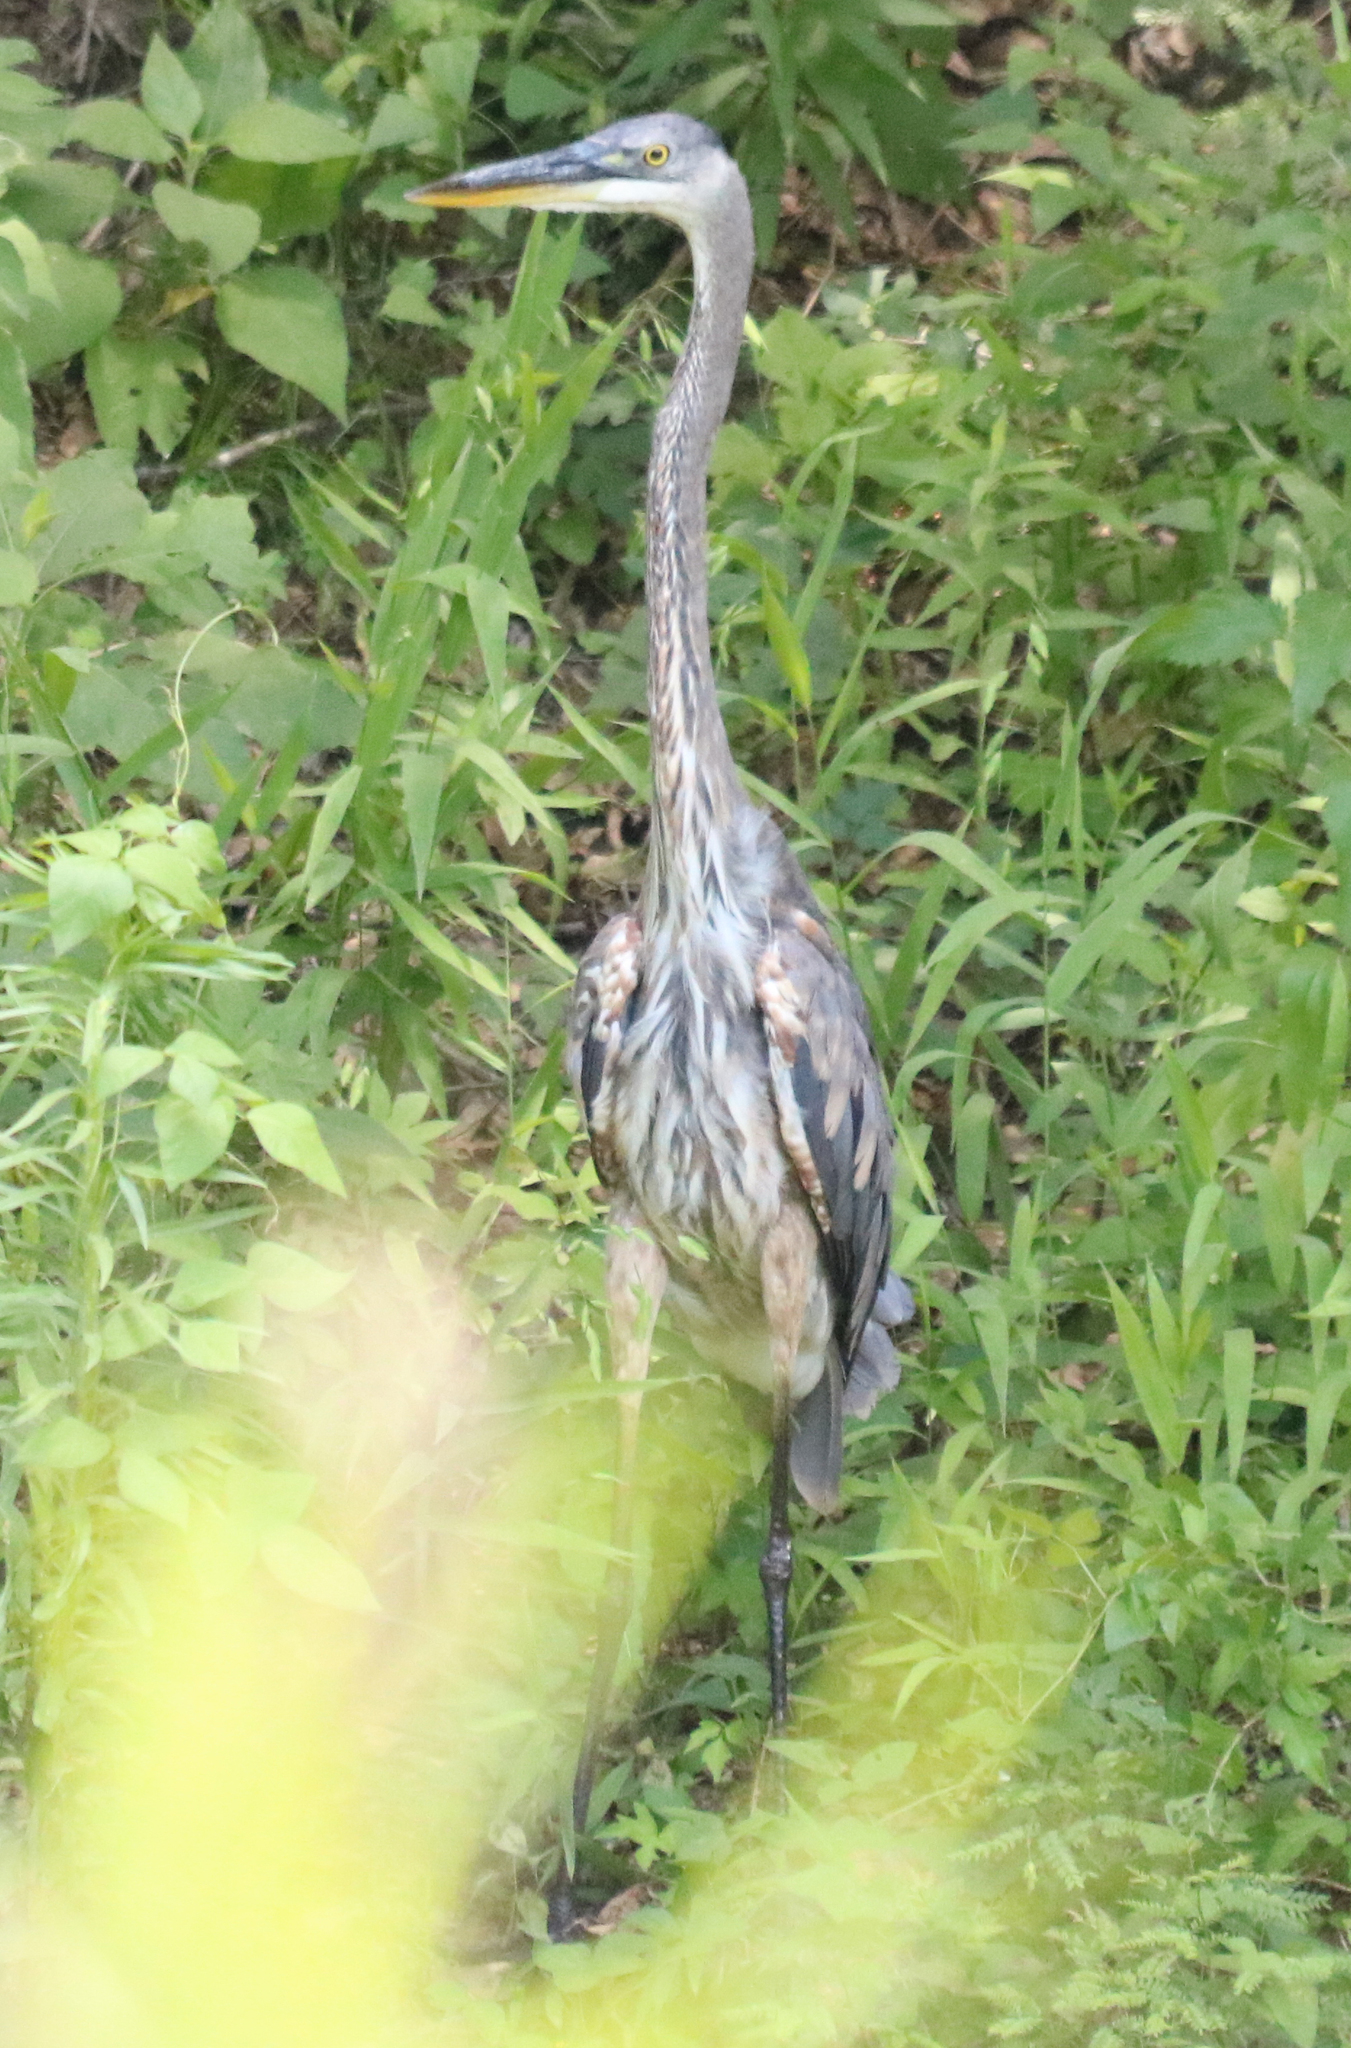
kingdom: Animalia
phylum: Chordata
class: Aves
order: Pelecaniformes
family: Ardeidae
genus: Ardea
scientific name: Ardea herodias
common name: Great blue heron
